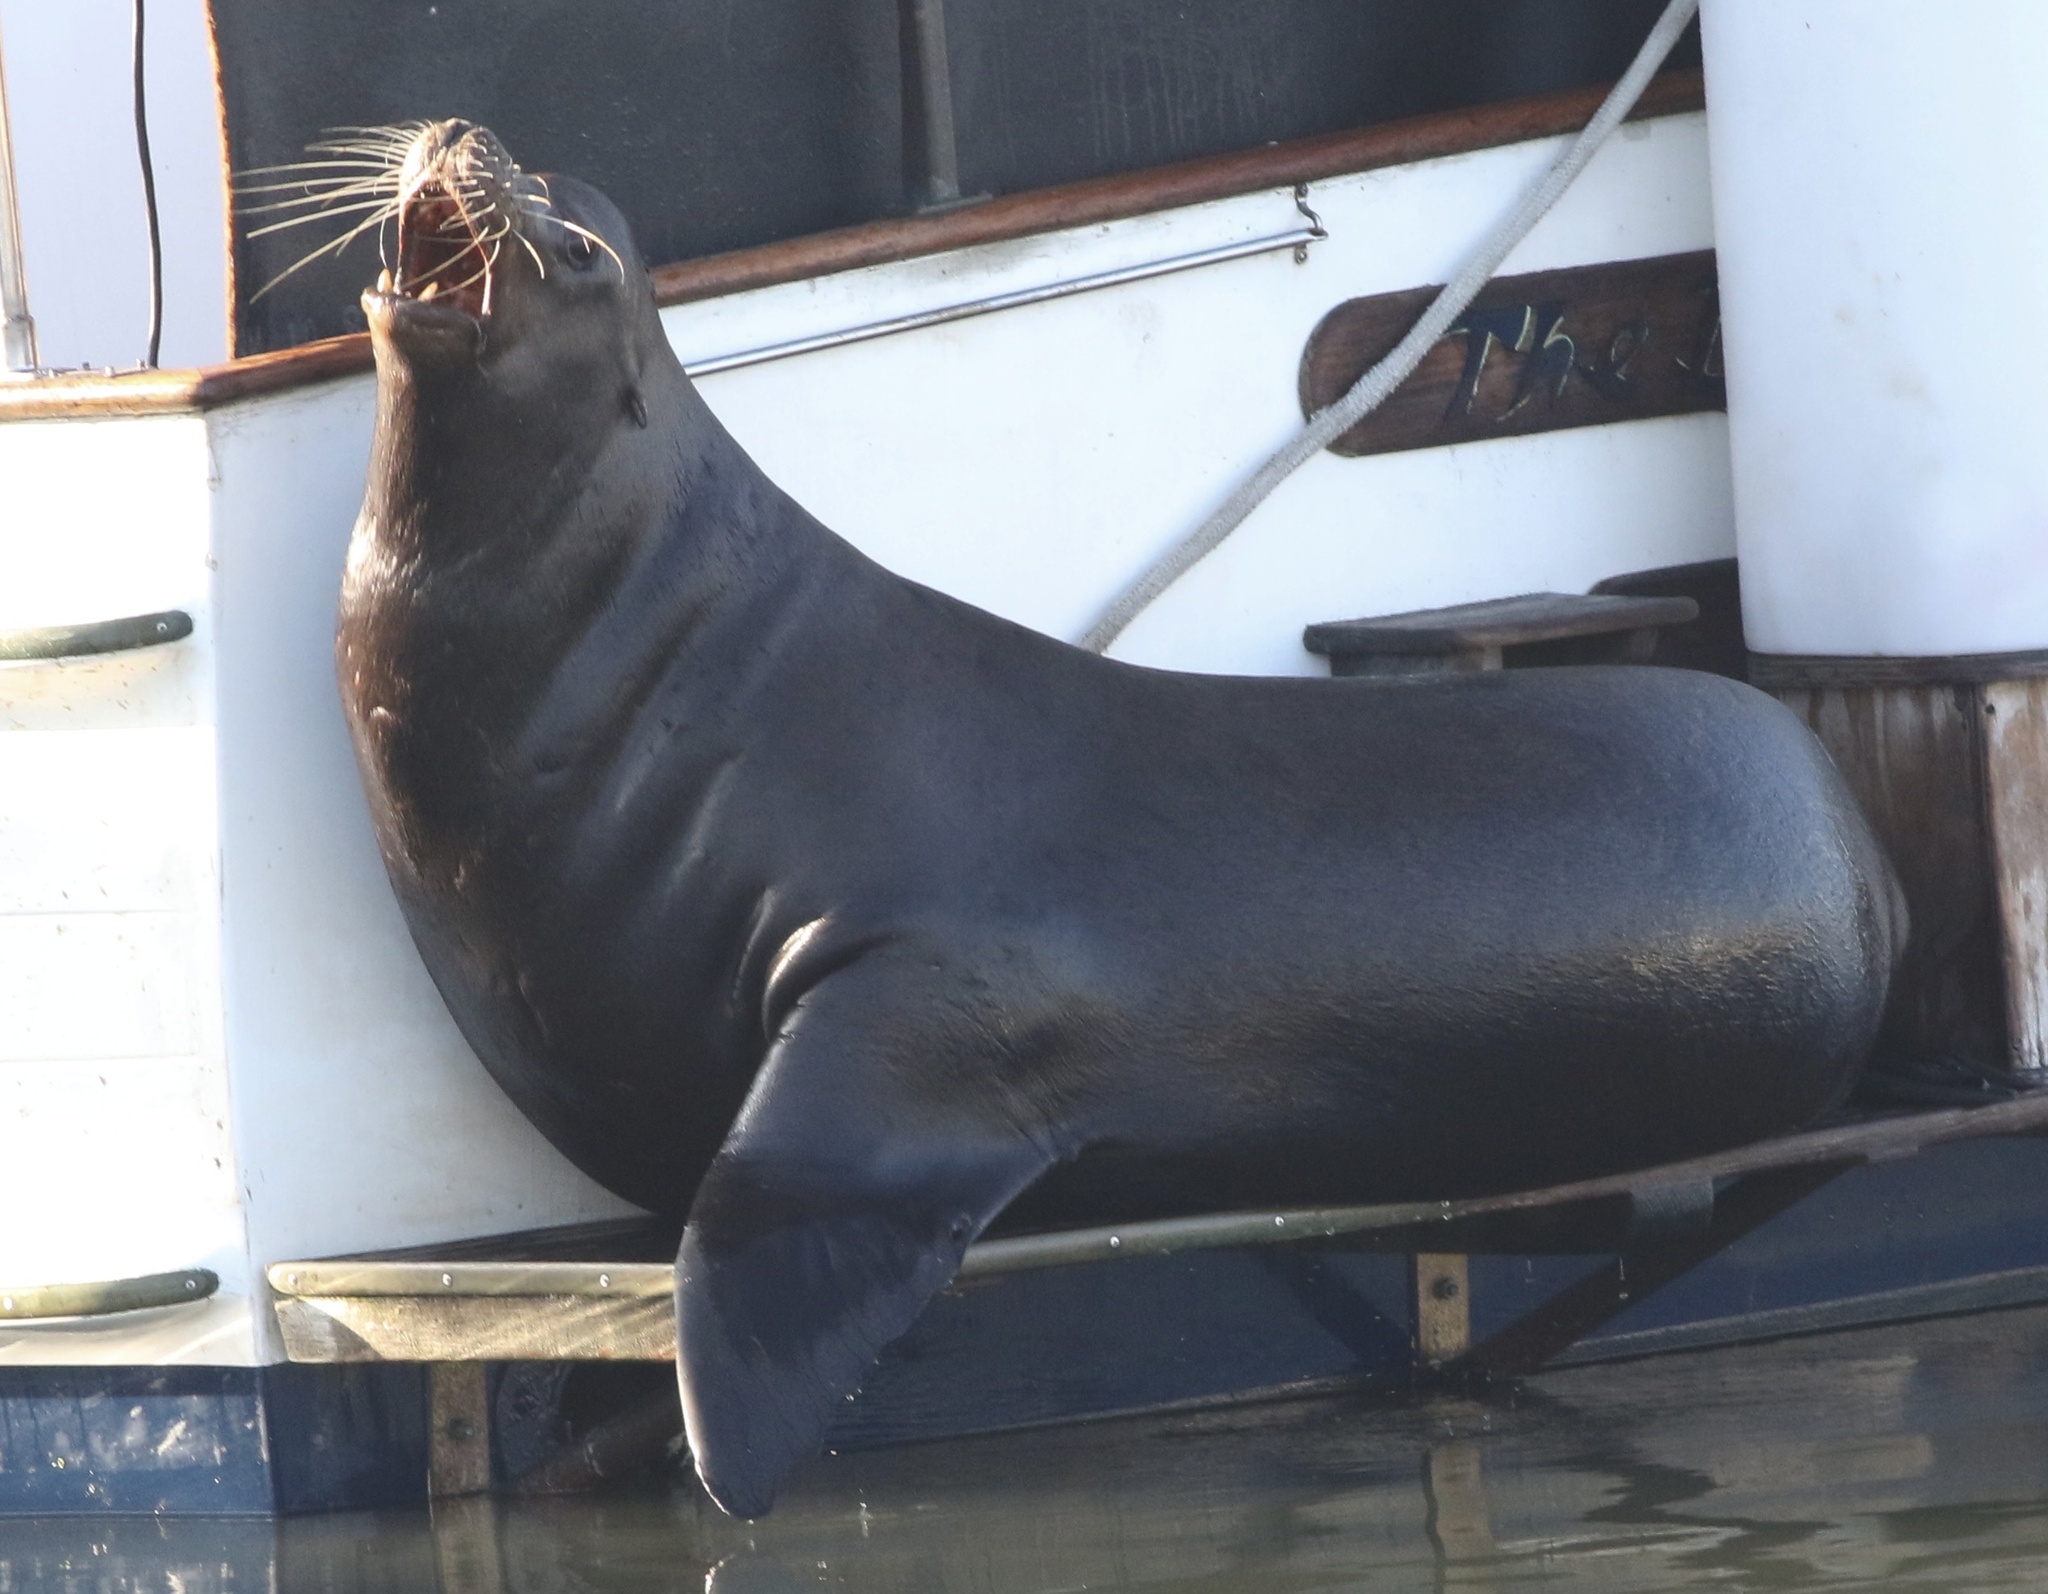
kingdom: Animalia
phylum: Chordata
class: Mammalia
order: Carnivora
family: Otariidae
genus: Zalophus
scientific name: Zalophus californianus
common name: California sea lion
